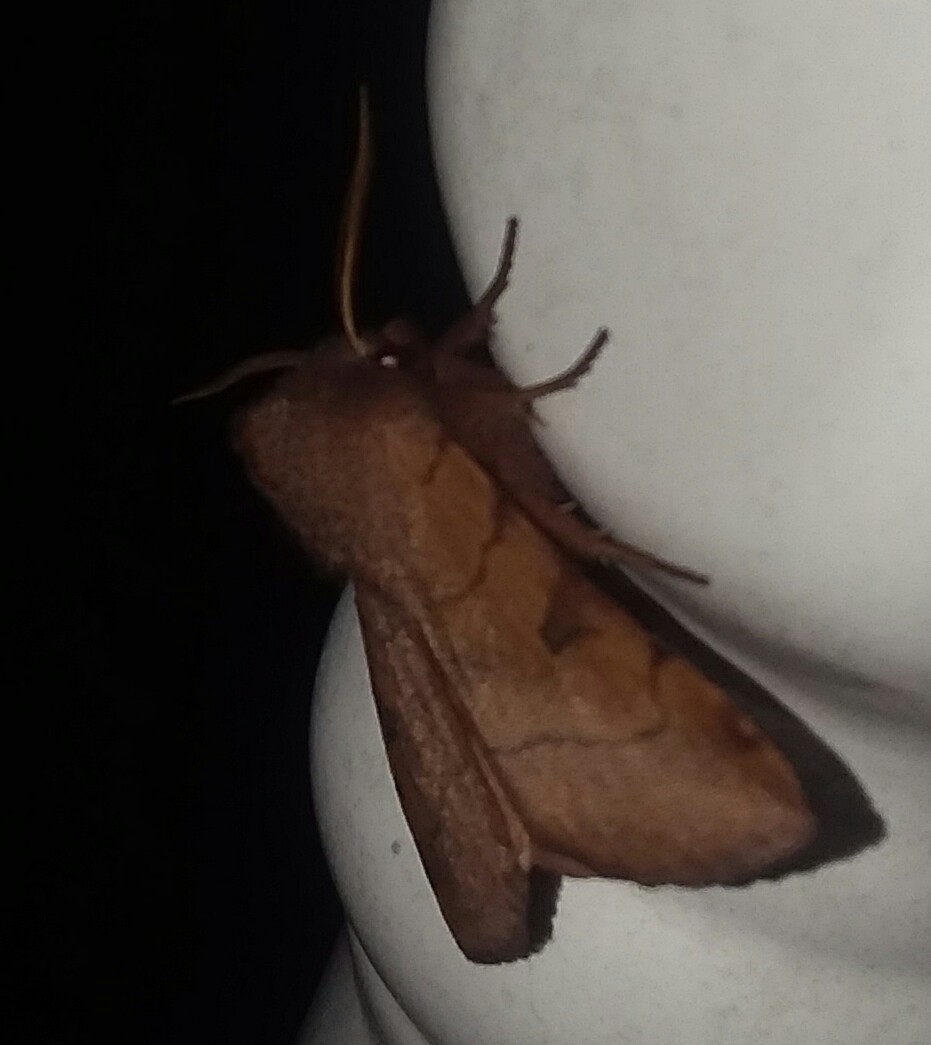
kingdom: Animalia
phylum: Arthropoda
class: Insecta
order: Lepidoptera
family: Noctuidae
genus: Choephora
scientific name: Choephora fungorum
